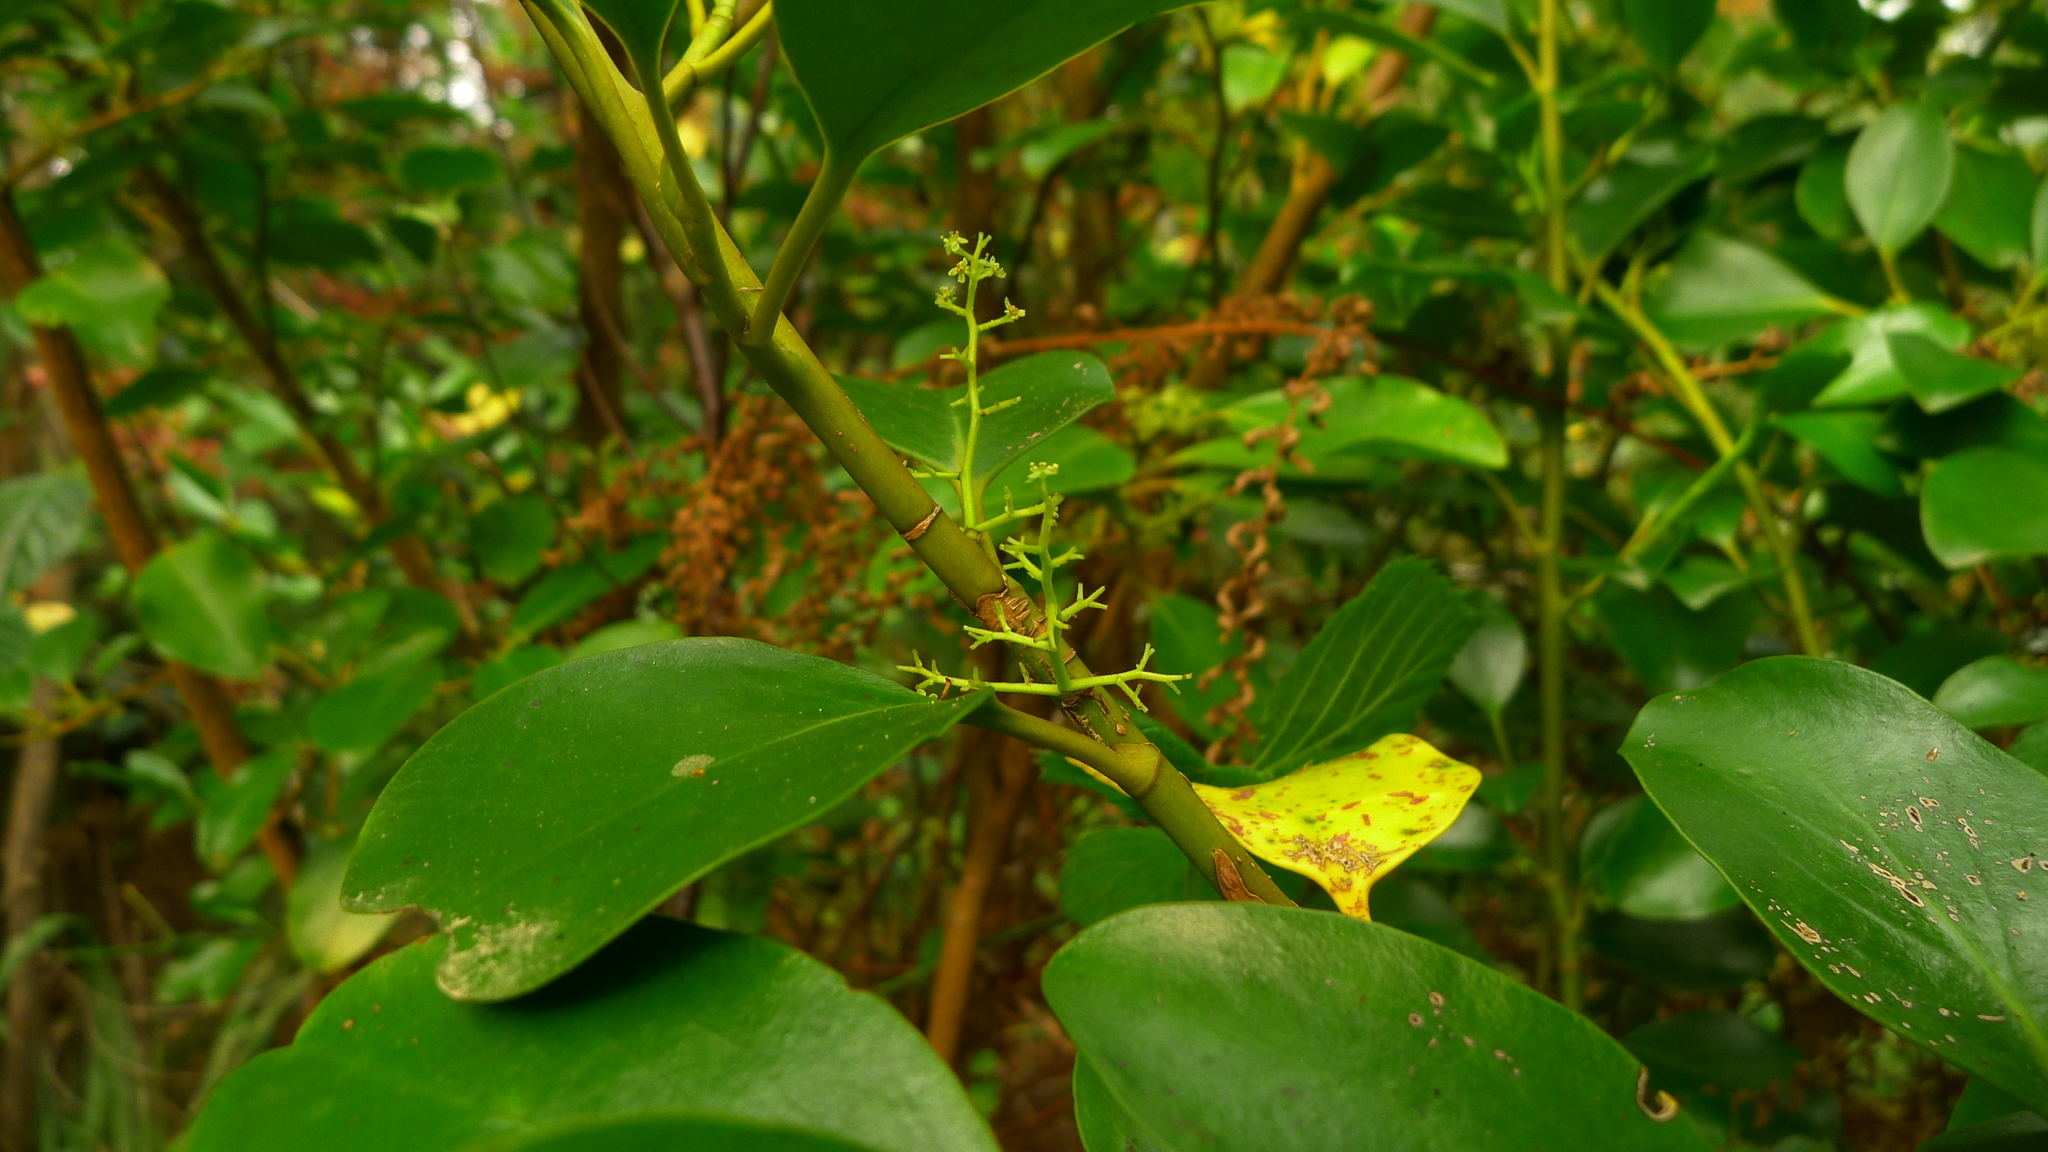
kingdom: Plantae
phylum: Tracheophyta
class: Magnoliopsida
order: Apiales
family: Griseliniaceae
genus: Griselinia
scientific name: Griselinia littoralis
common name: New zealand broadleaf
